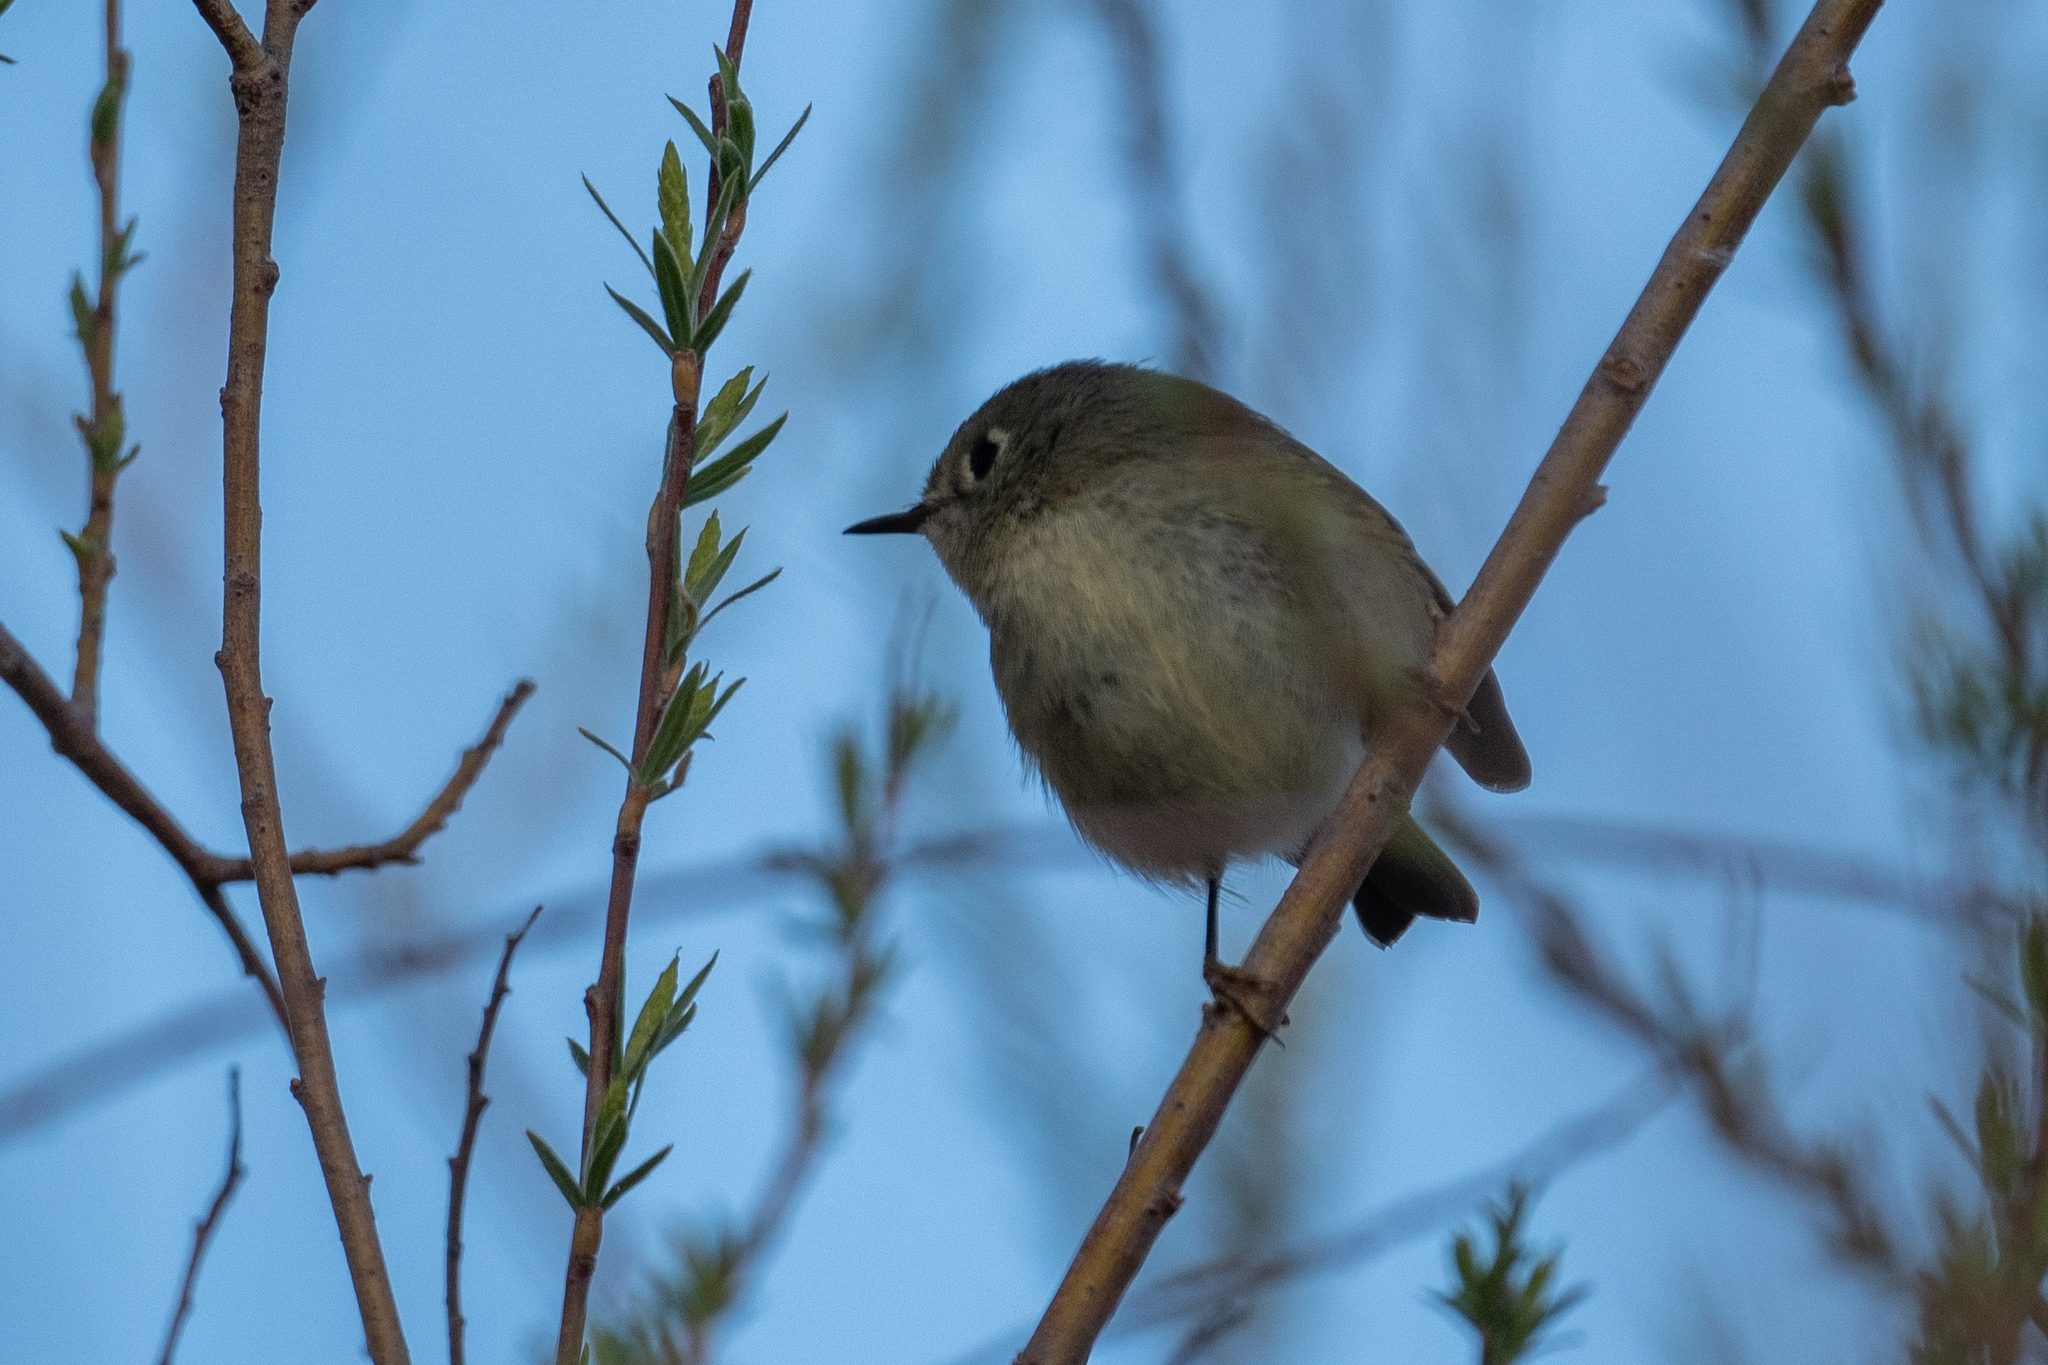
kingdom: Animalia
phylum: Chordata
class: Aves
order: Passeriformes
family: Regulidae
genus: Regulus
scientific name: Regulus calendula
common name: Ruby-crowned kinglet
